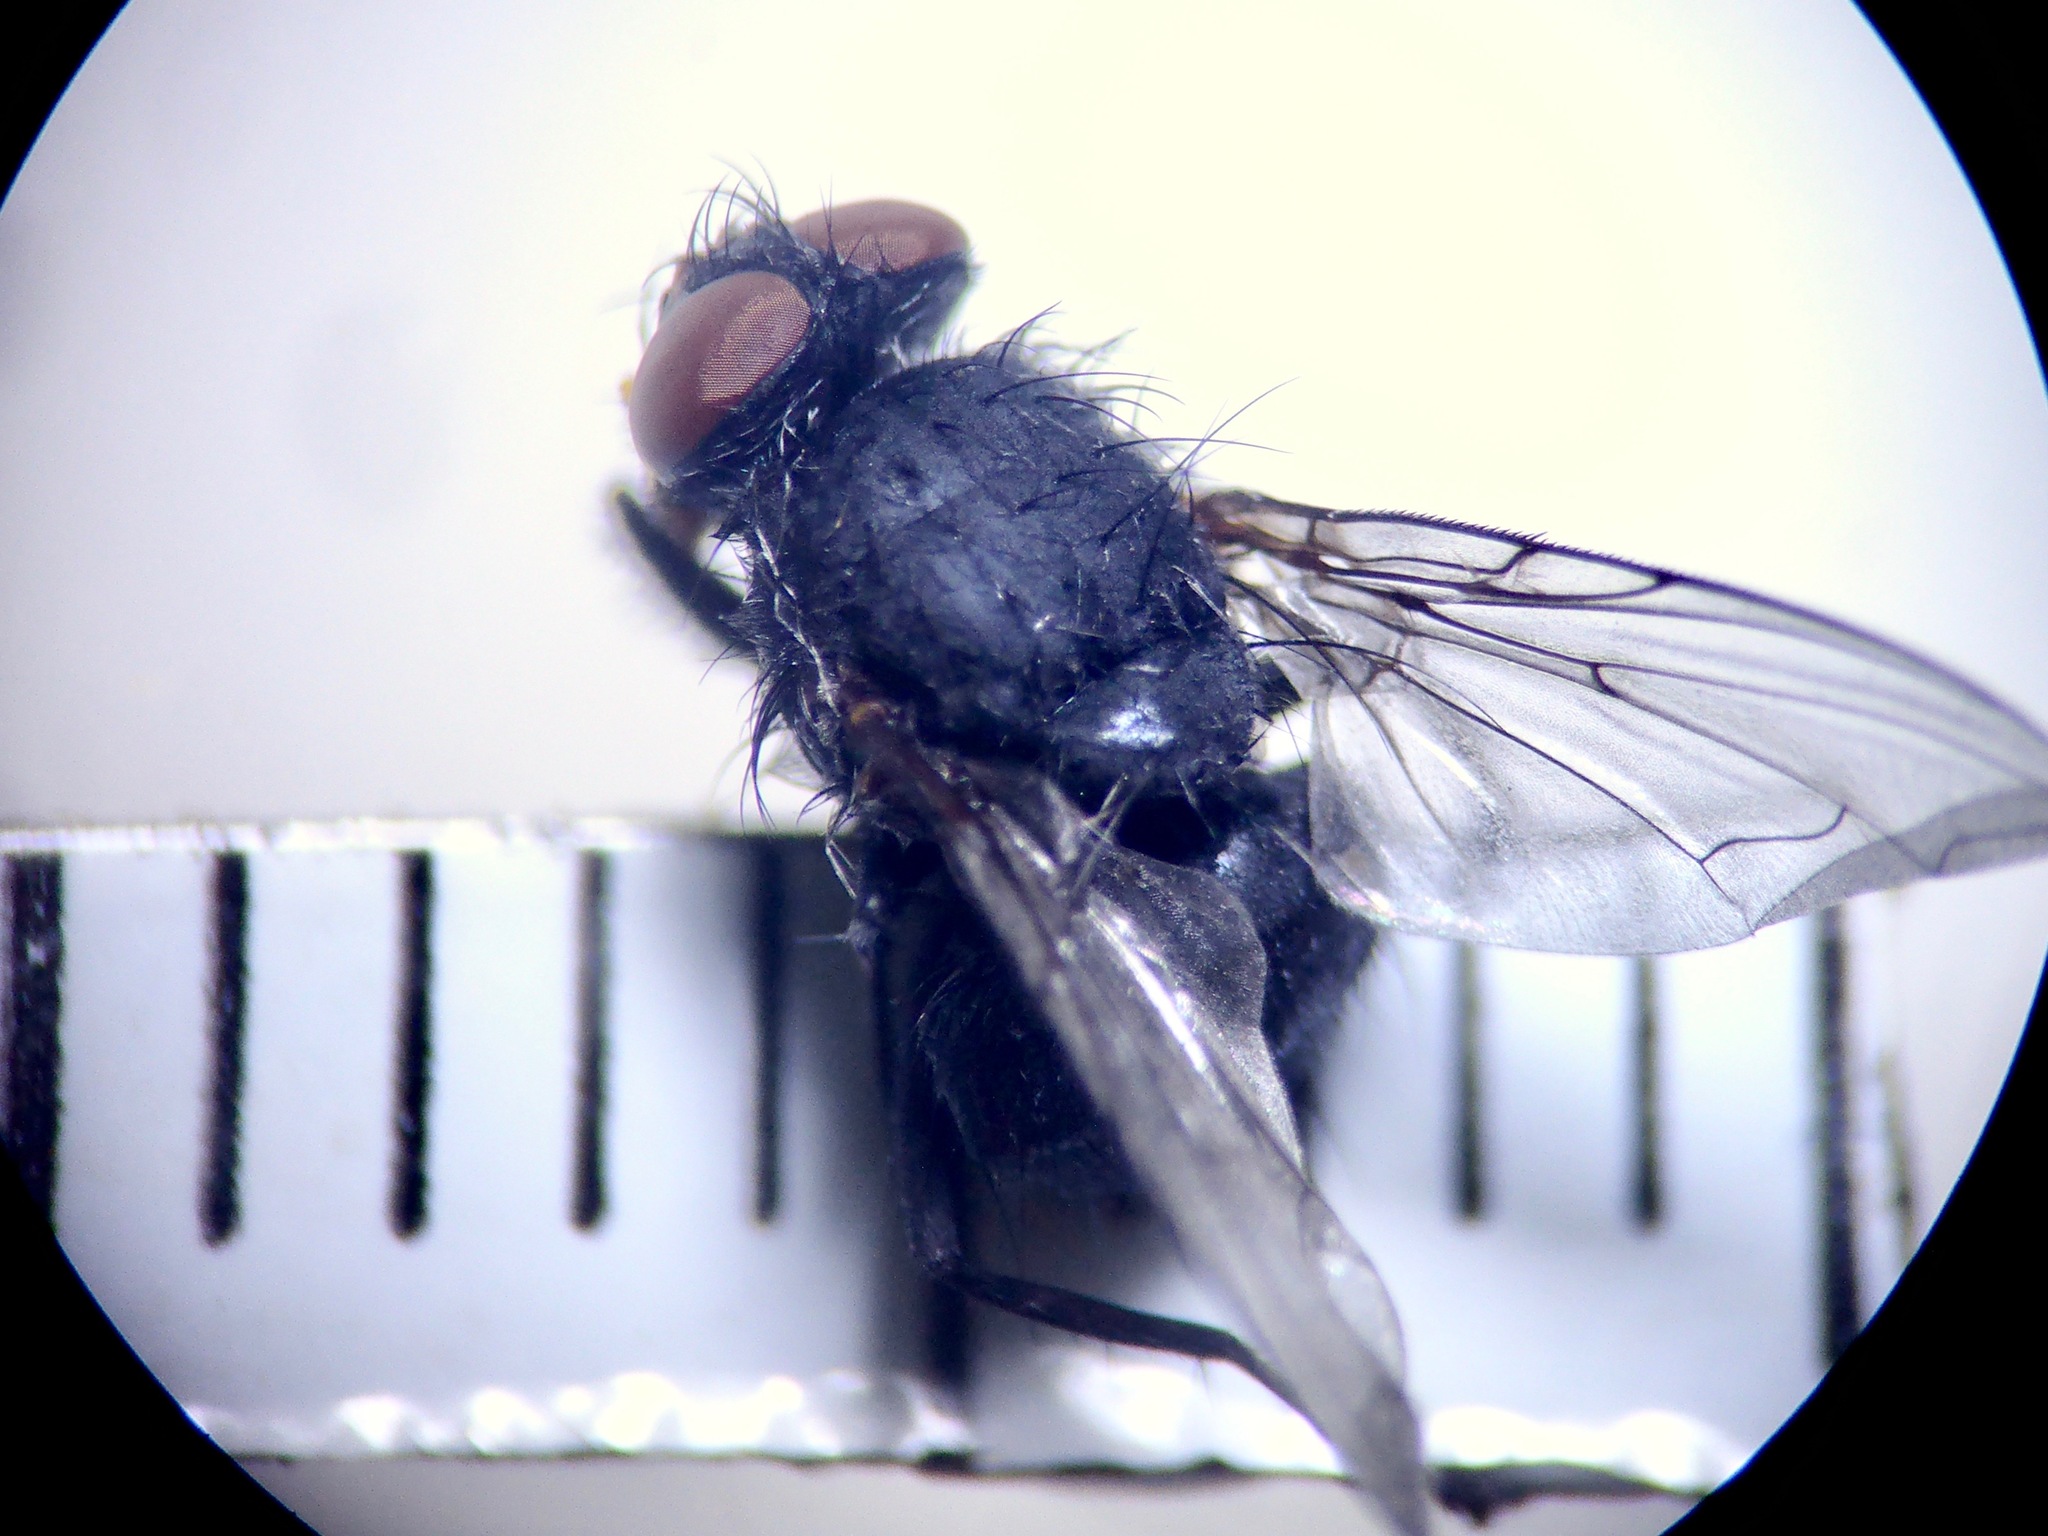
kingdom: Animalia
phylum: Arthropoda
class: Insecta
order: Diptera
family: Calliphoridae
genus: Calliphora
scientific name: Calliphora vicina
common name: Common blow flie
